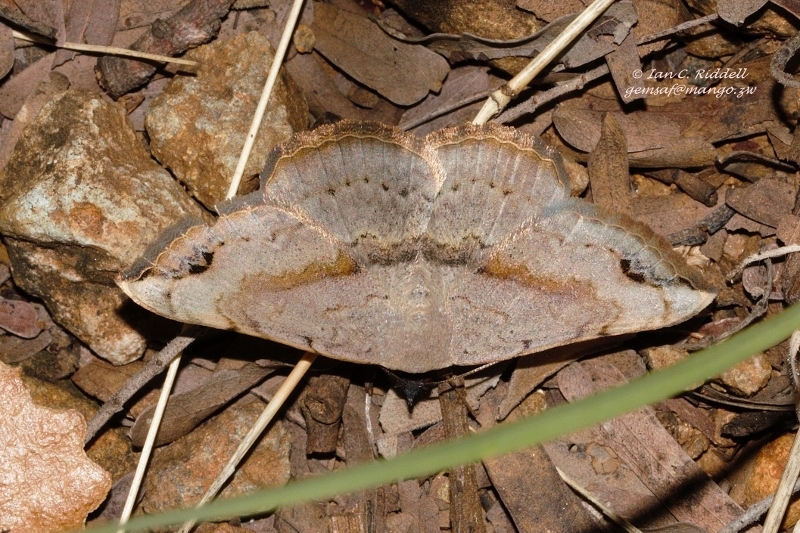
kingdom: Animalia
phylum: Arthropoda
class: Insecta
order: Lepidoptera
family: Erebidae
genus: Maxera
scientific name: Maxera marchalii
